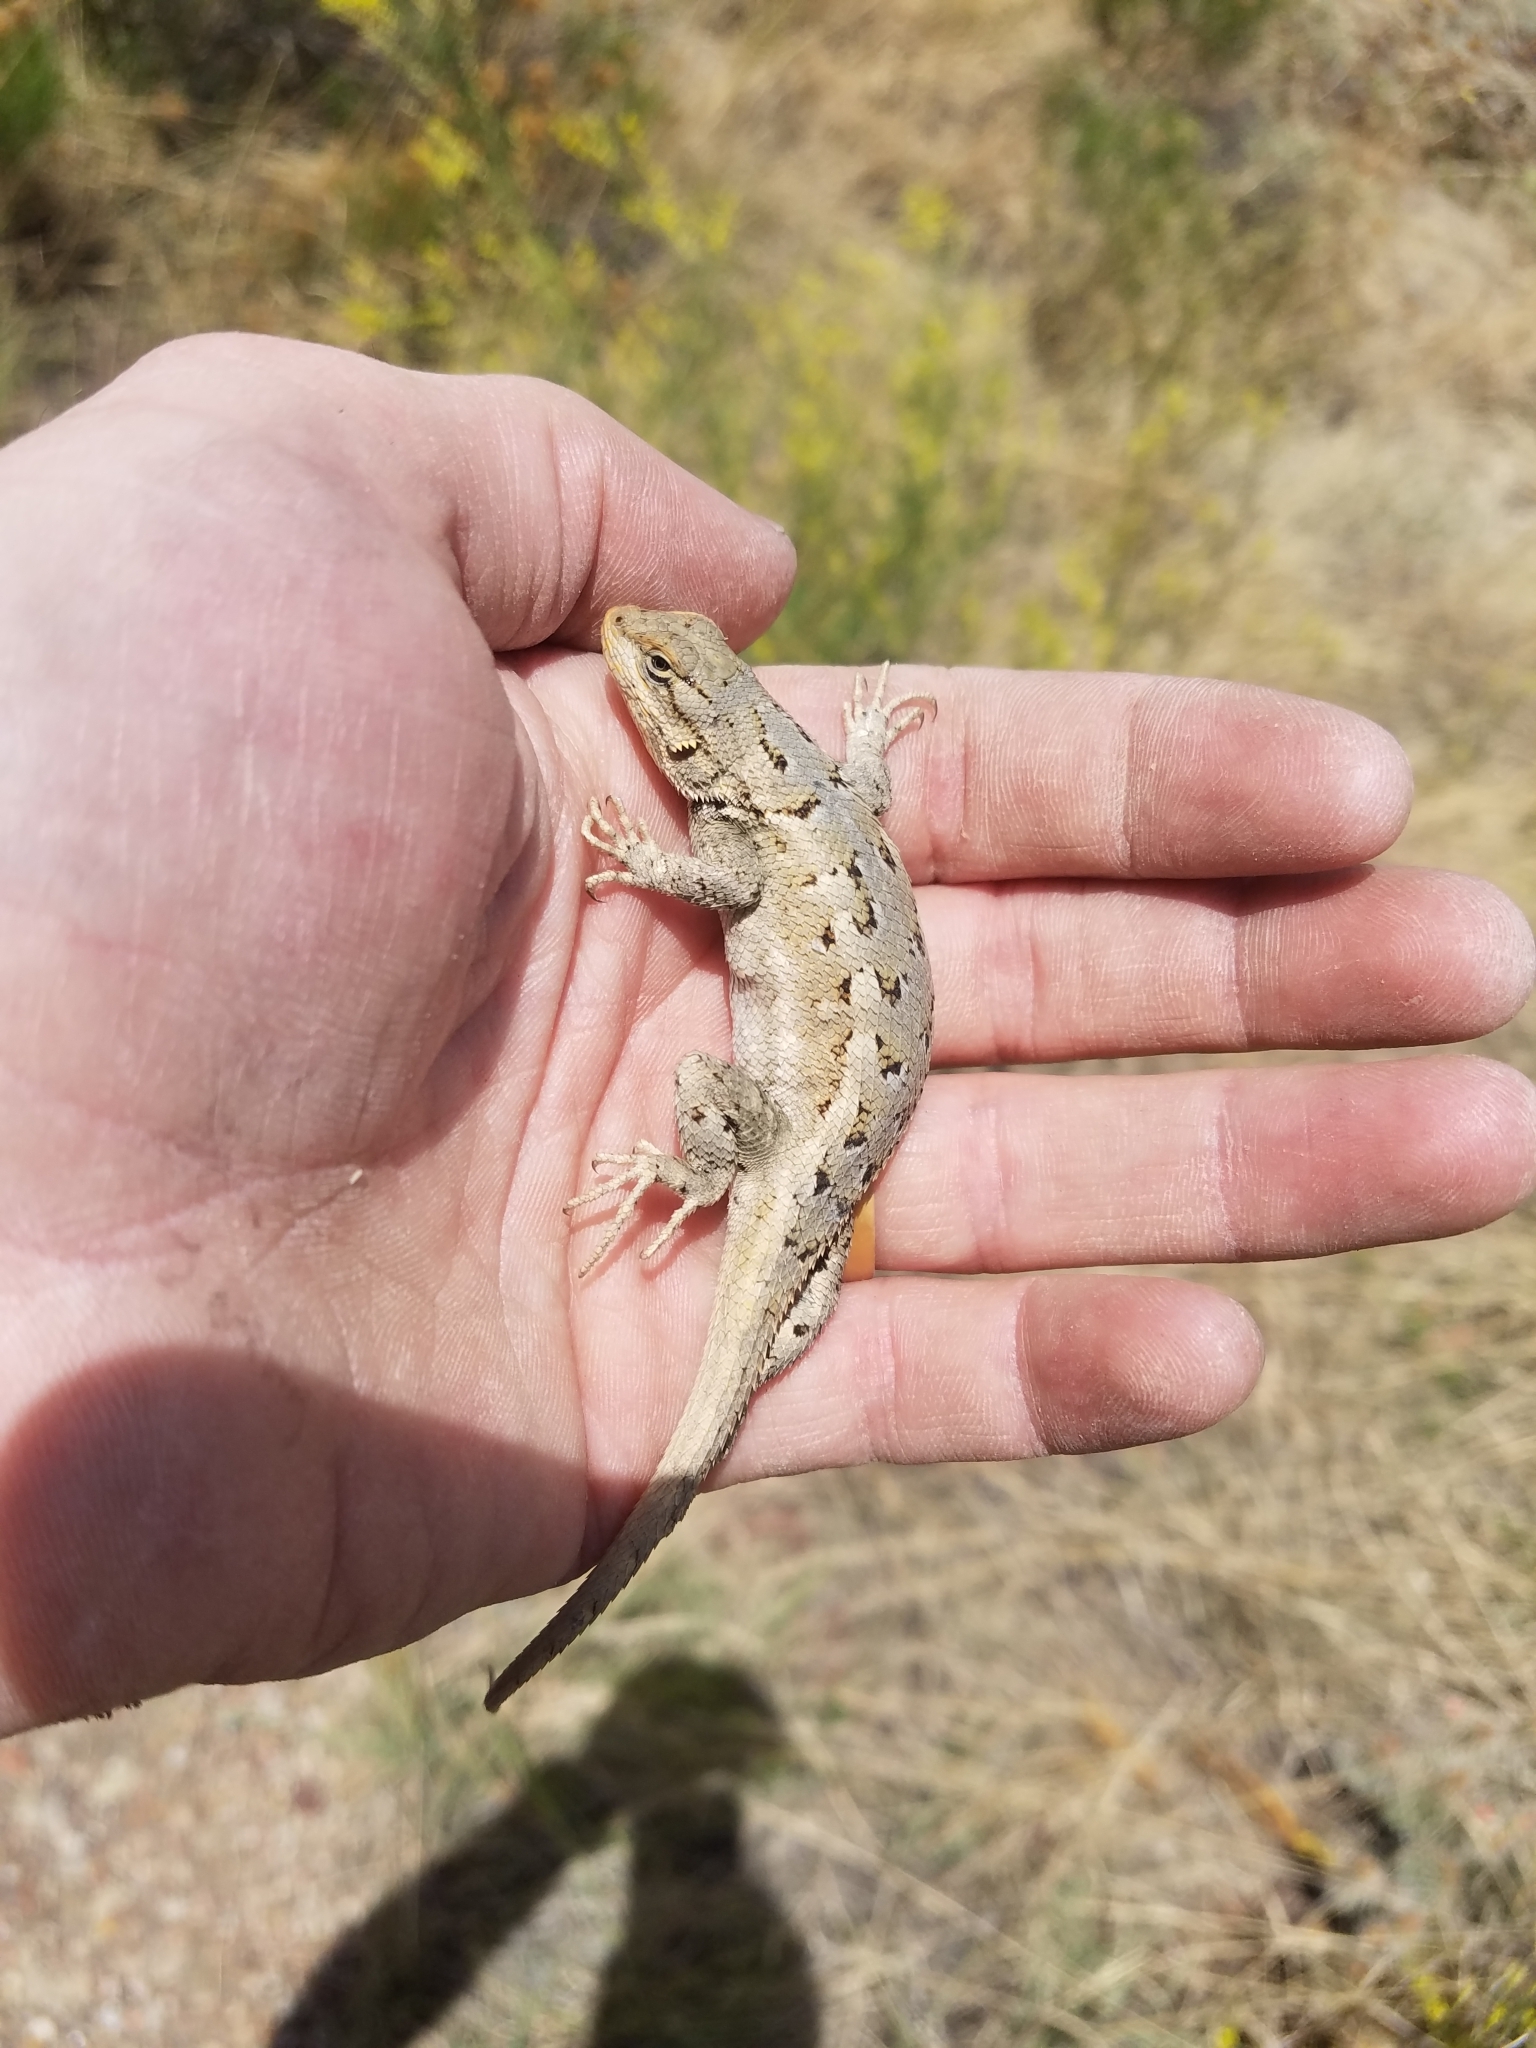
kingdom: Animalia
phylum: Chordata
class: Squamata
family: Phrynosomatidae
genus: Sceloporus
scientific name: Sceloporus consobrinus
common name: Southern prairie lizard
